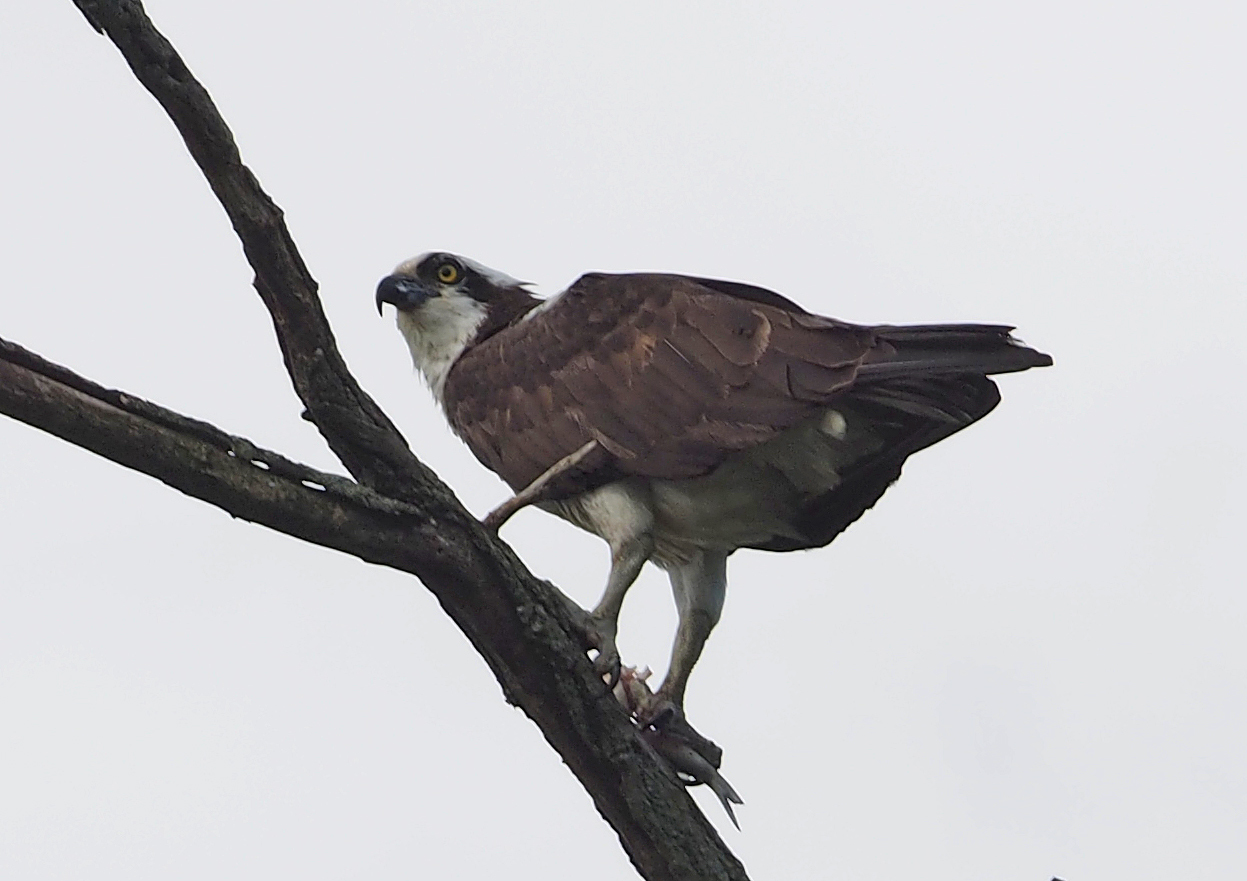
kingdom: Animalia
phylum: Chordata
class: Aves
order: Accipitriformes
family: Pandionidae
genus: Pandion
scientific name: Pandion haliaetus
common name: Osprey
